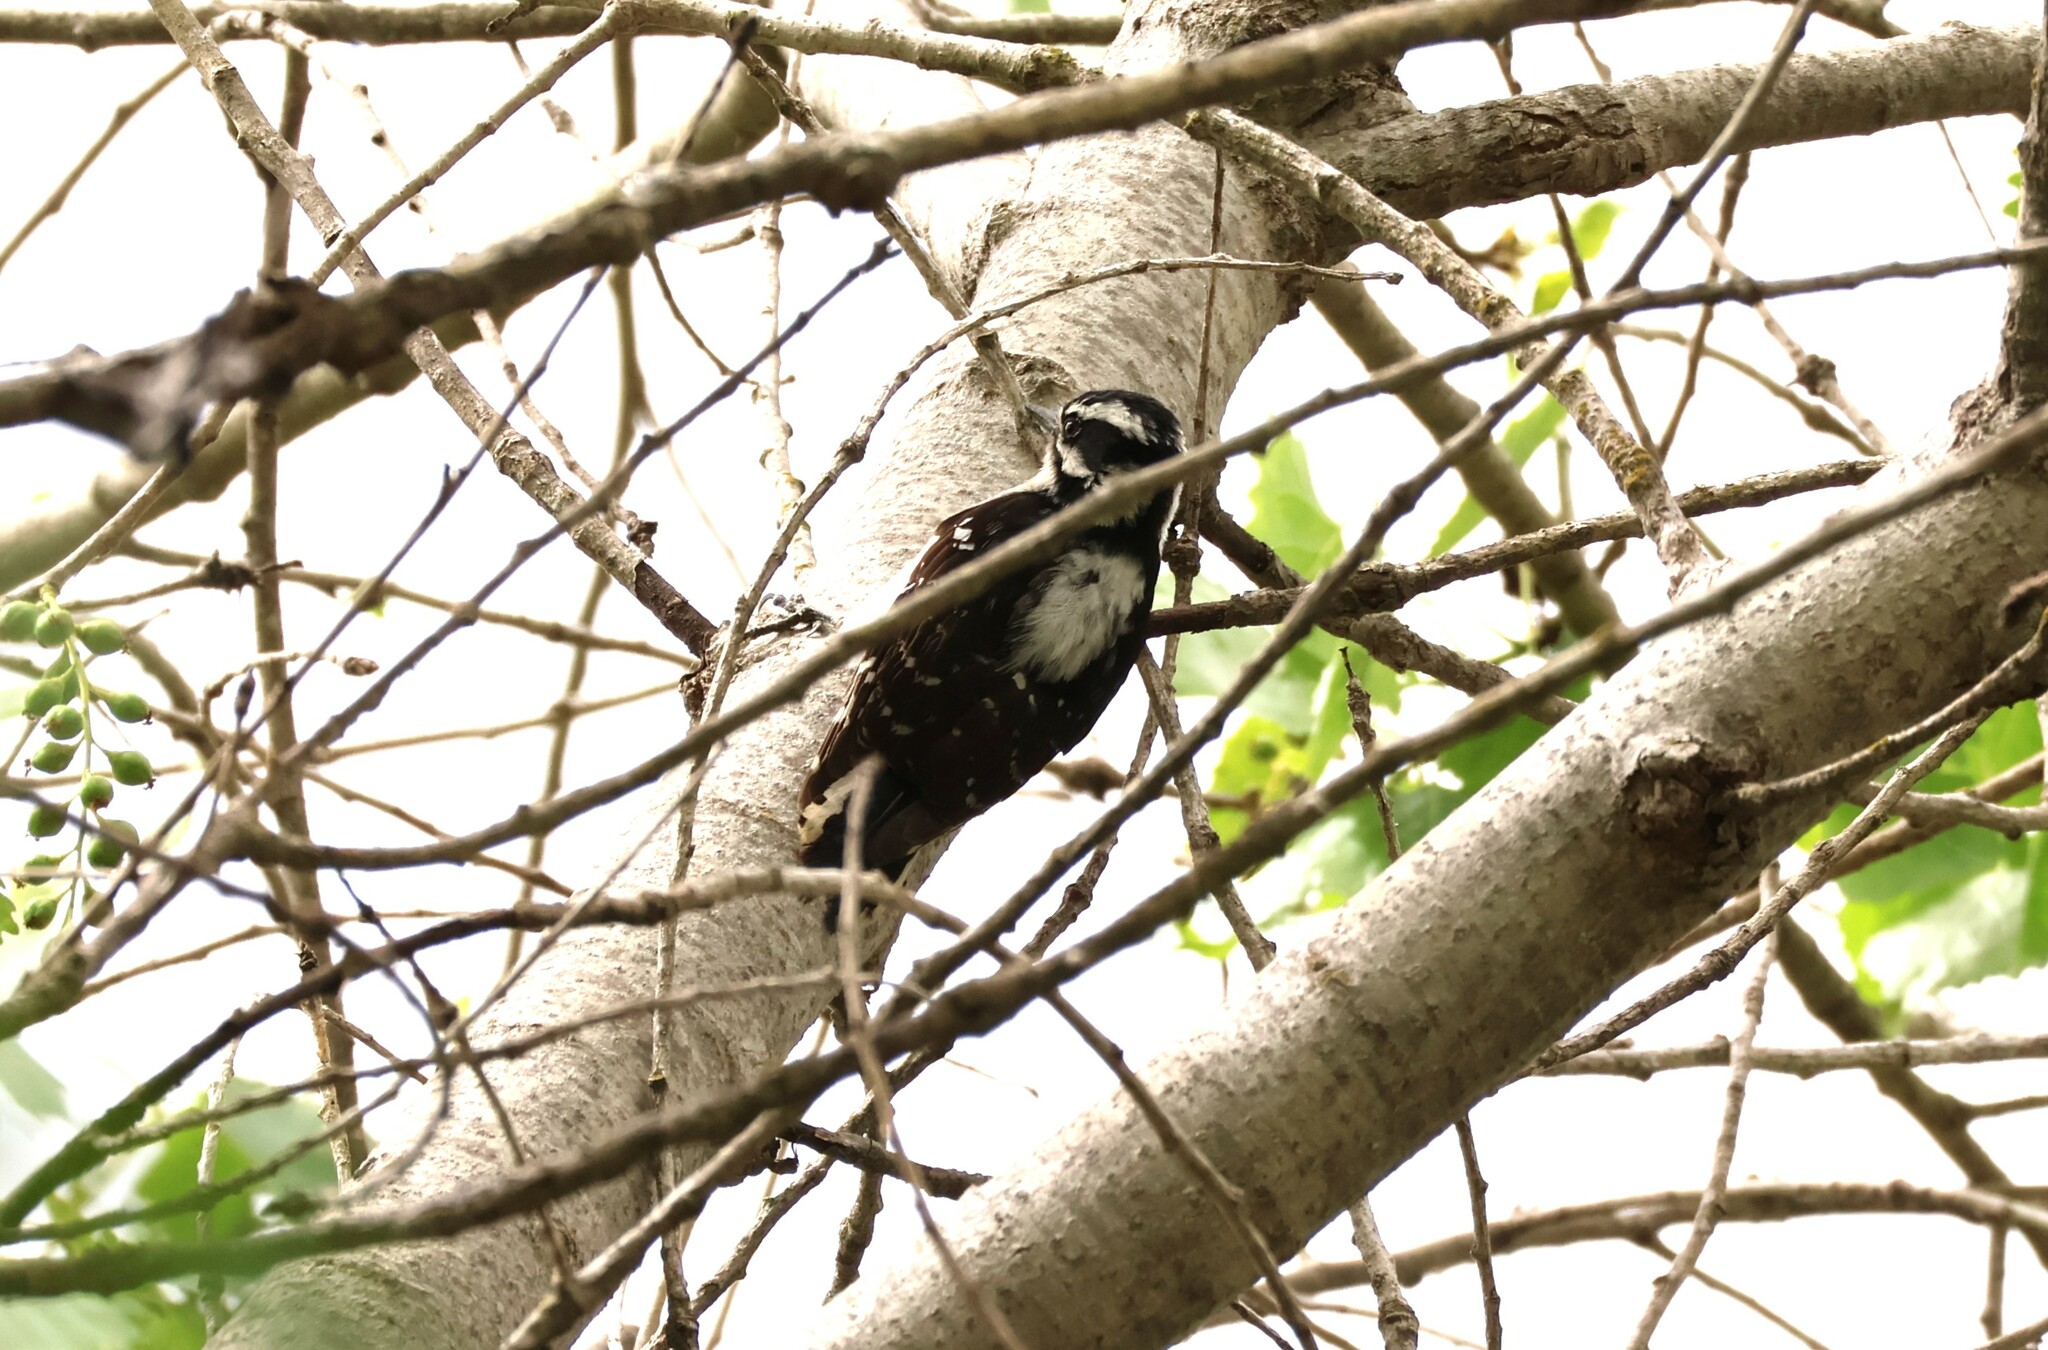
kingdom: Animalia
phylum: Chordata
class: Aves
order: Piciformes
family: Picidae
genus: Dryobates
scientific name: Dryobates pubescens
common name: Downy woodpecker
